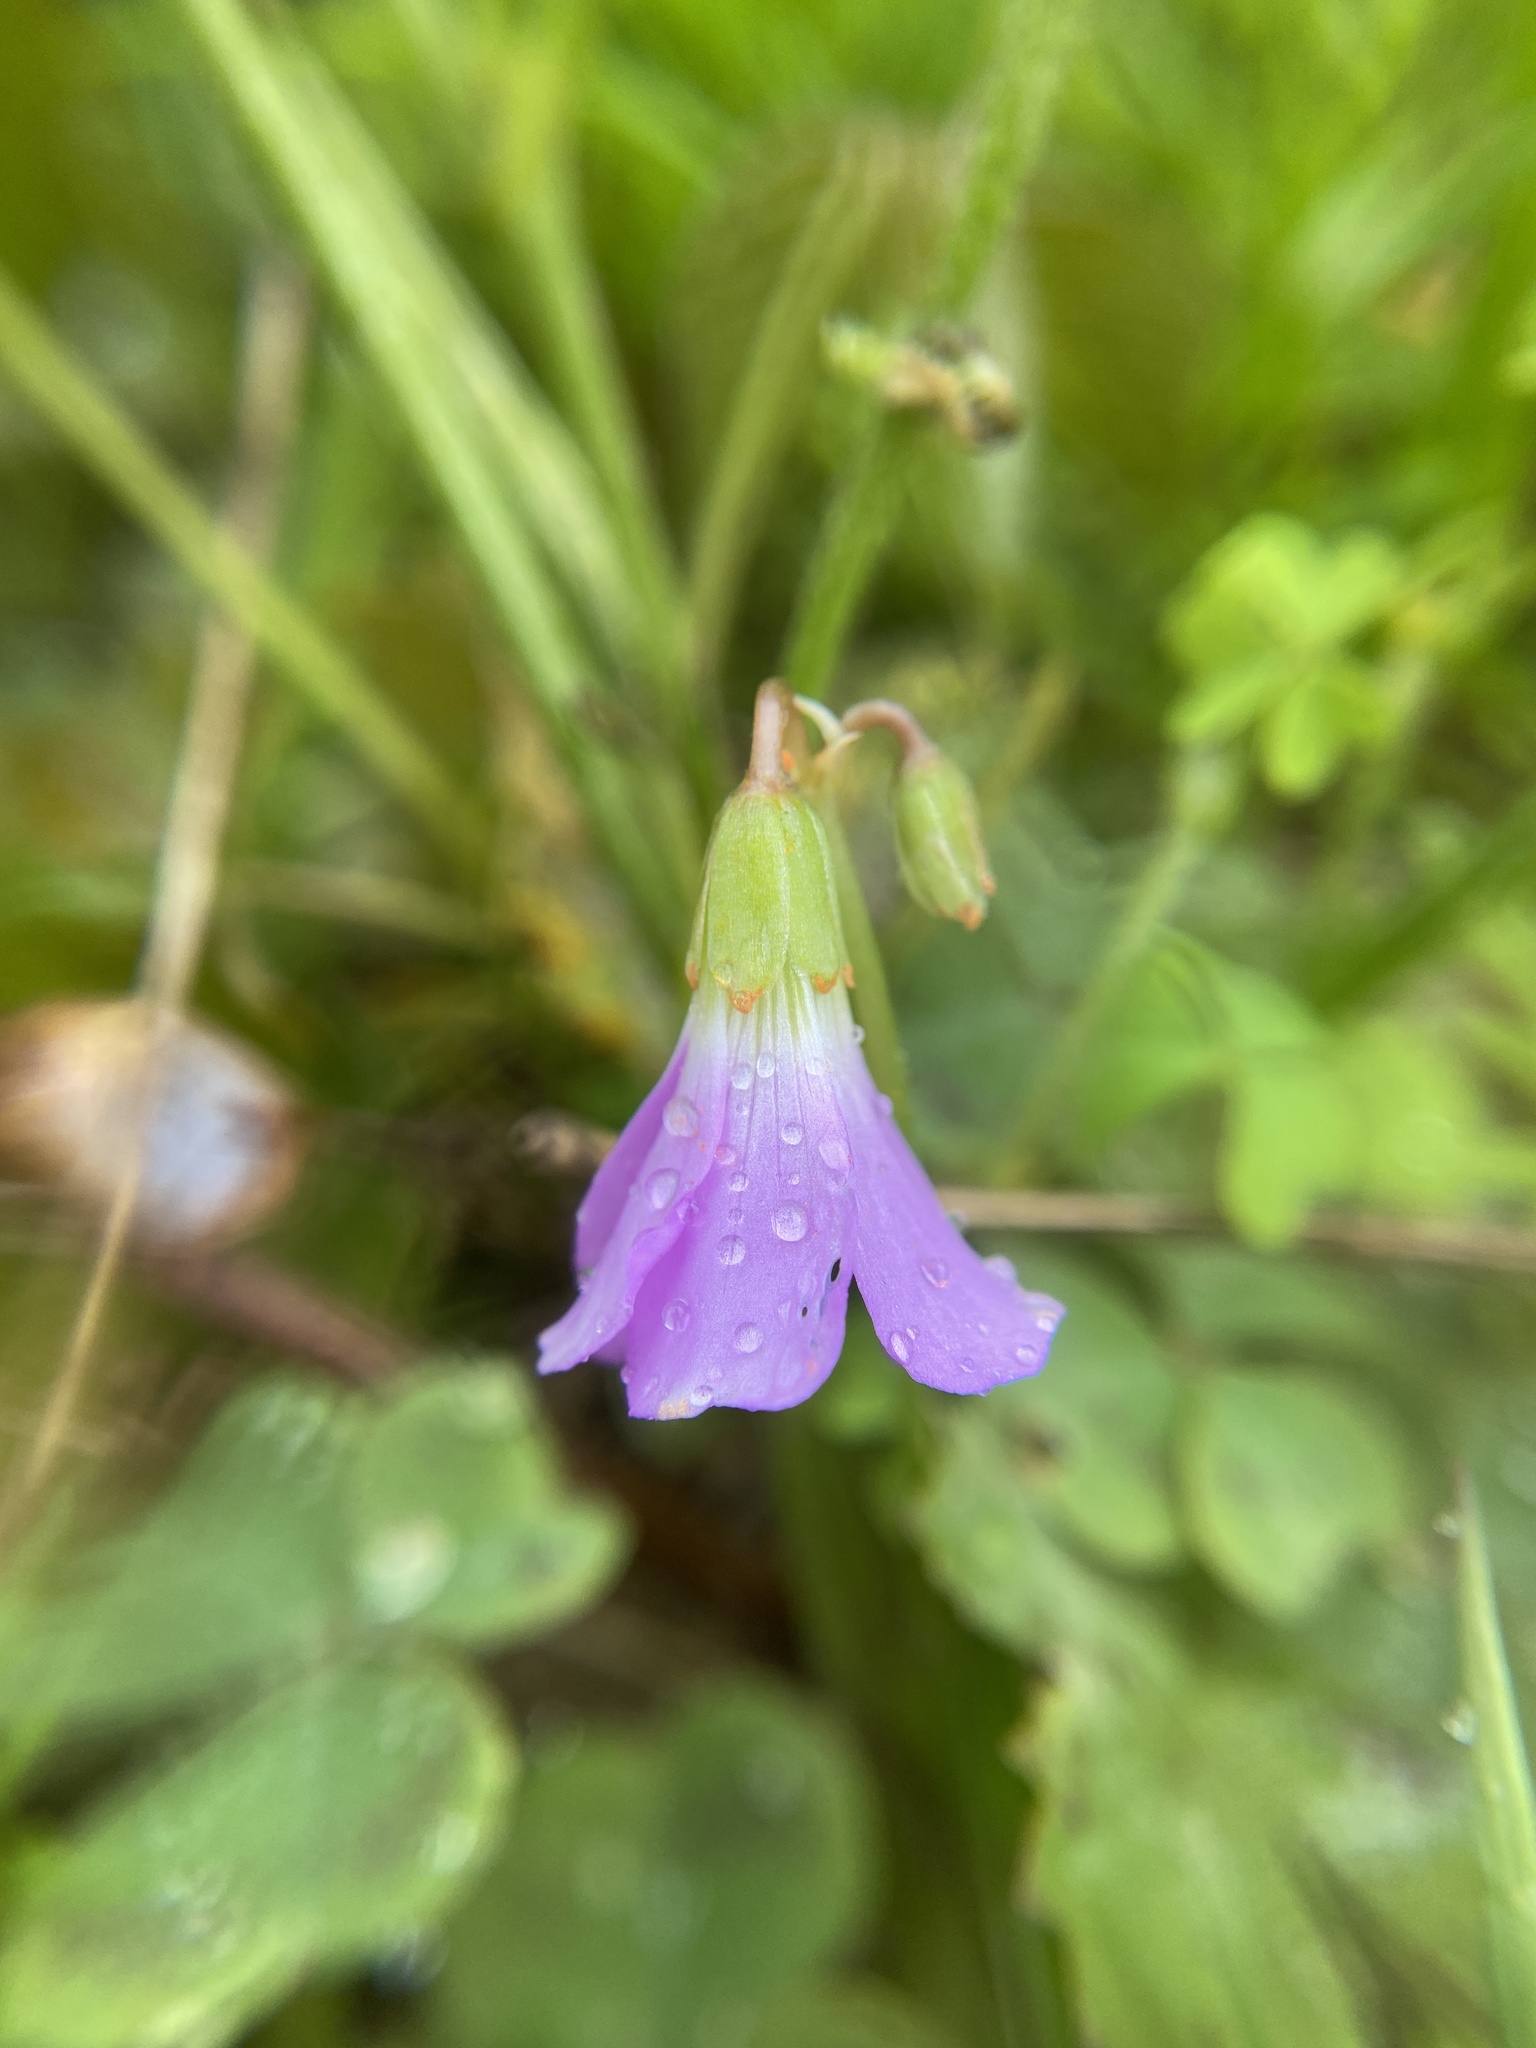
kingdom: Plantae
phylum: Tracheophyta
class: Magnoliopsida
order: Oxalidales
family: Oxalidaceae
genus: Oxalis
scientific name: Oxalis violacea
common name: Violet wood-sorrel
